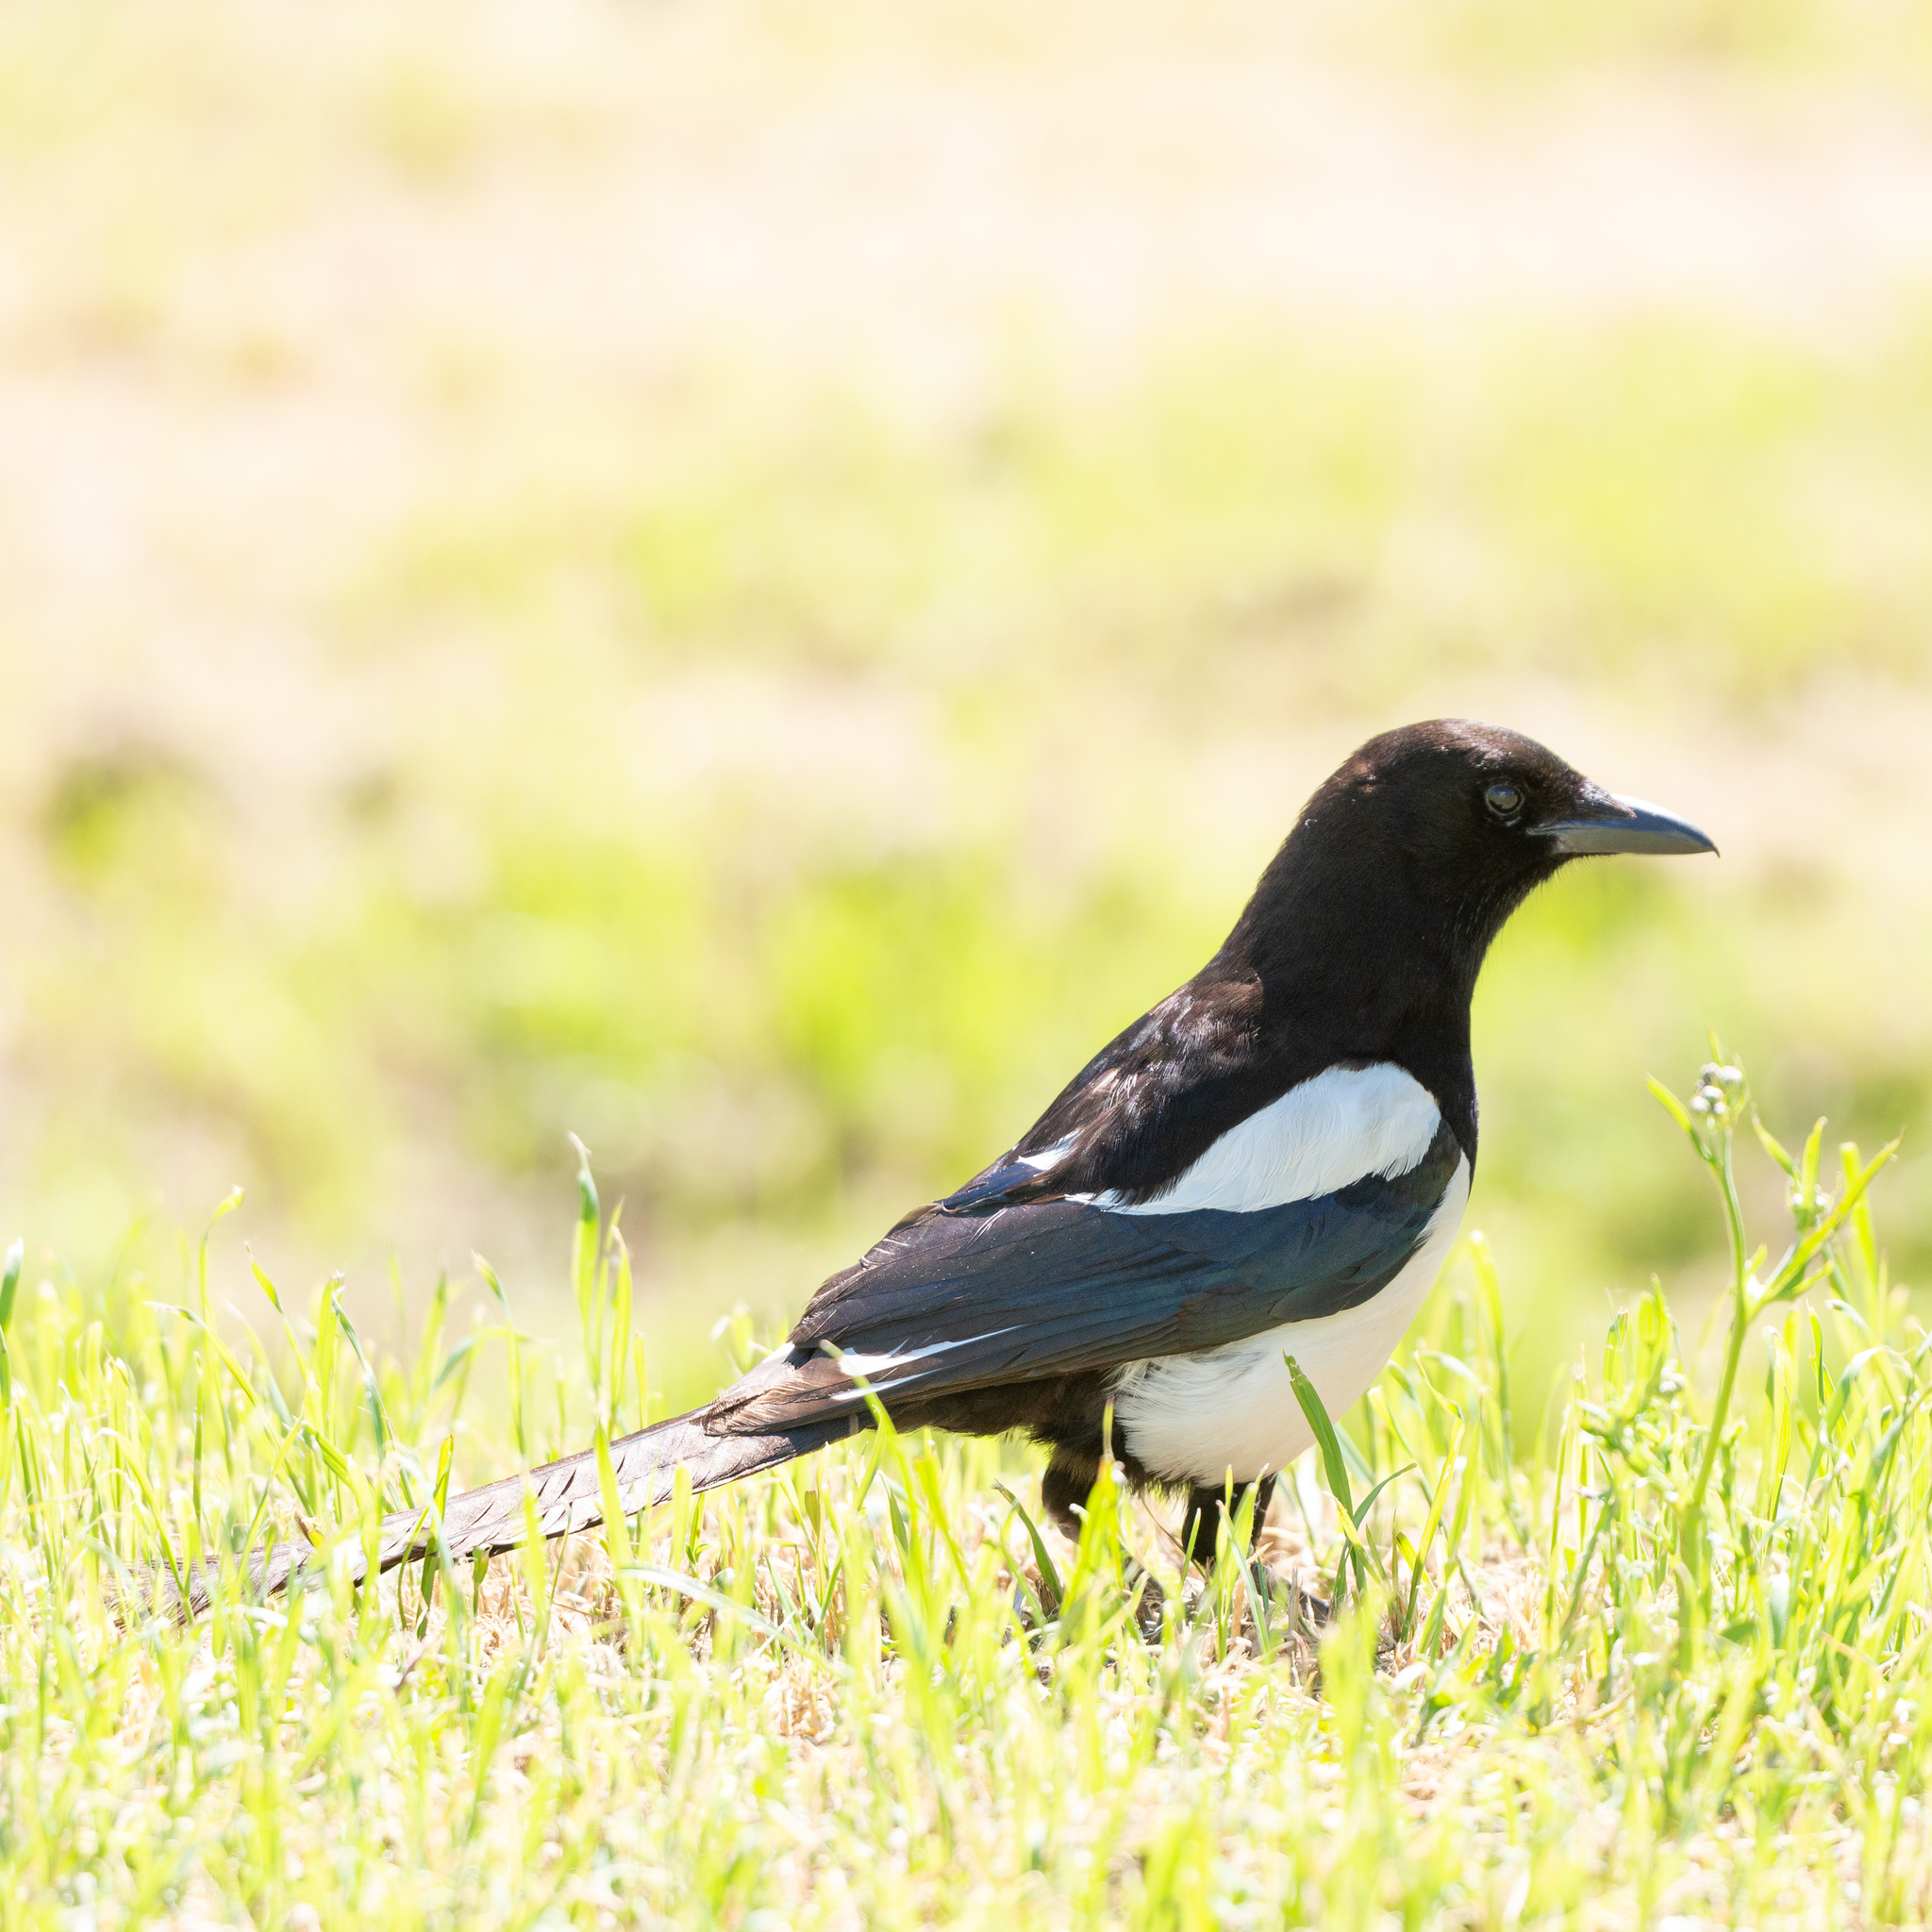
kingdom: Animalia
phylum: Chordata
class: Aves
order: Passeriformes
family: Corvidae
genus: Pica
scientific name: Pica pica
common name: Eurasian magpie
